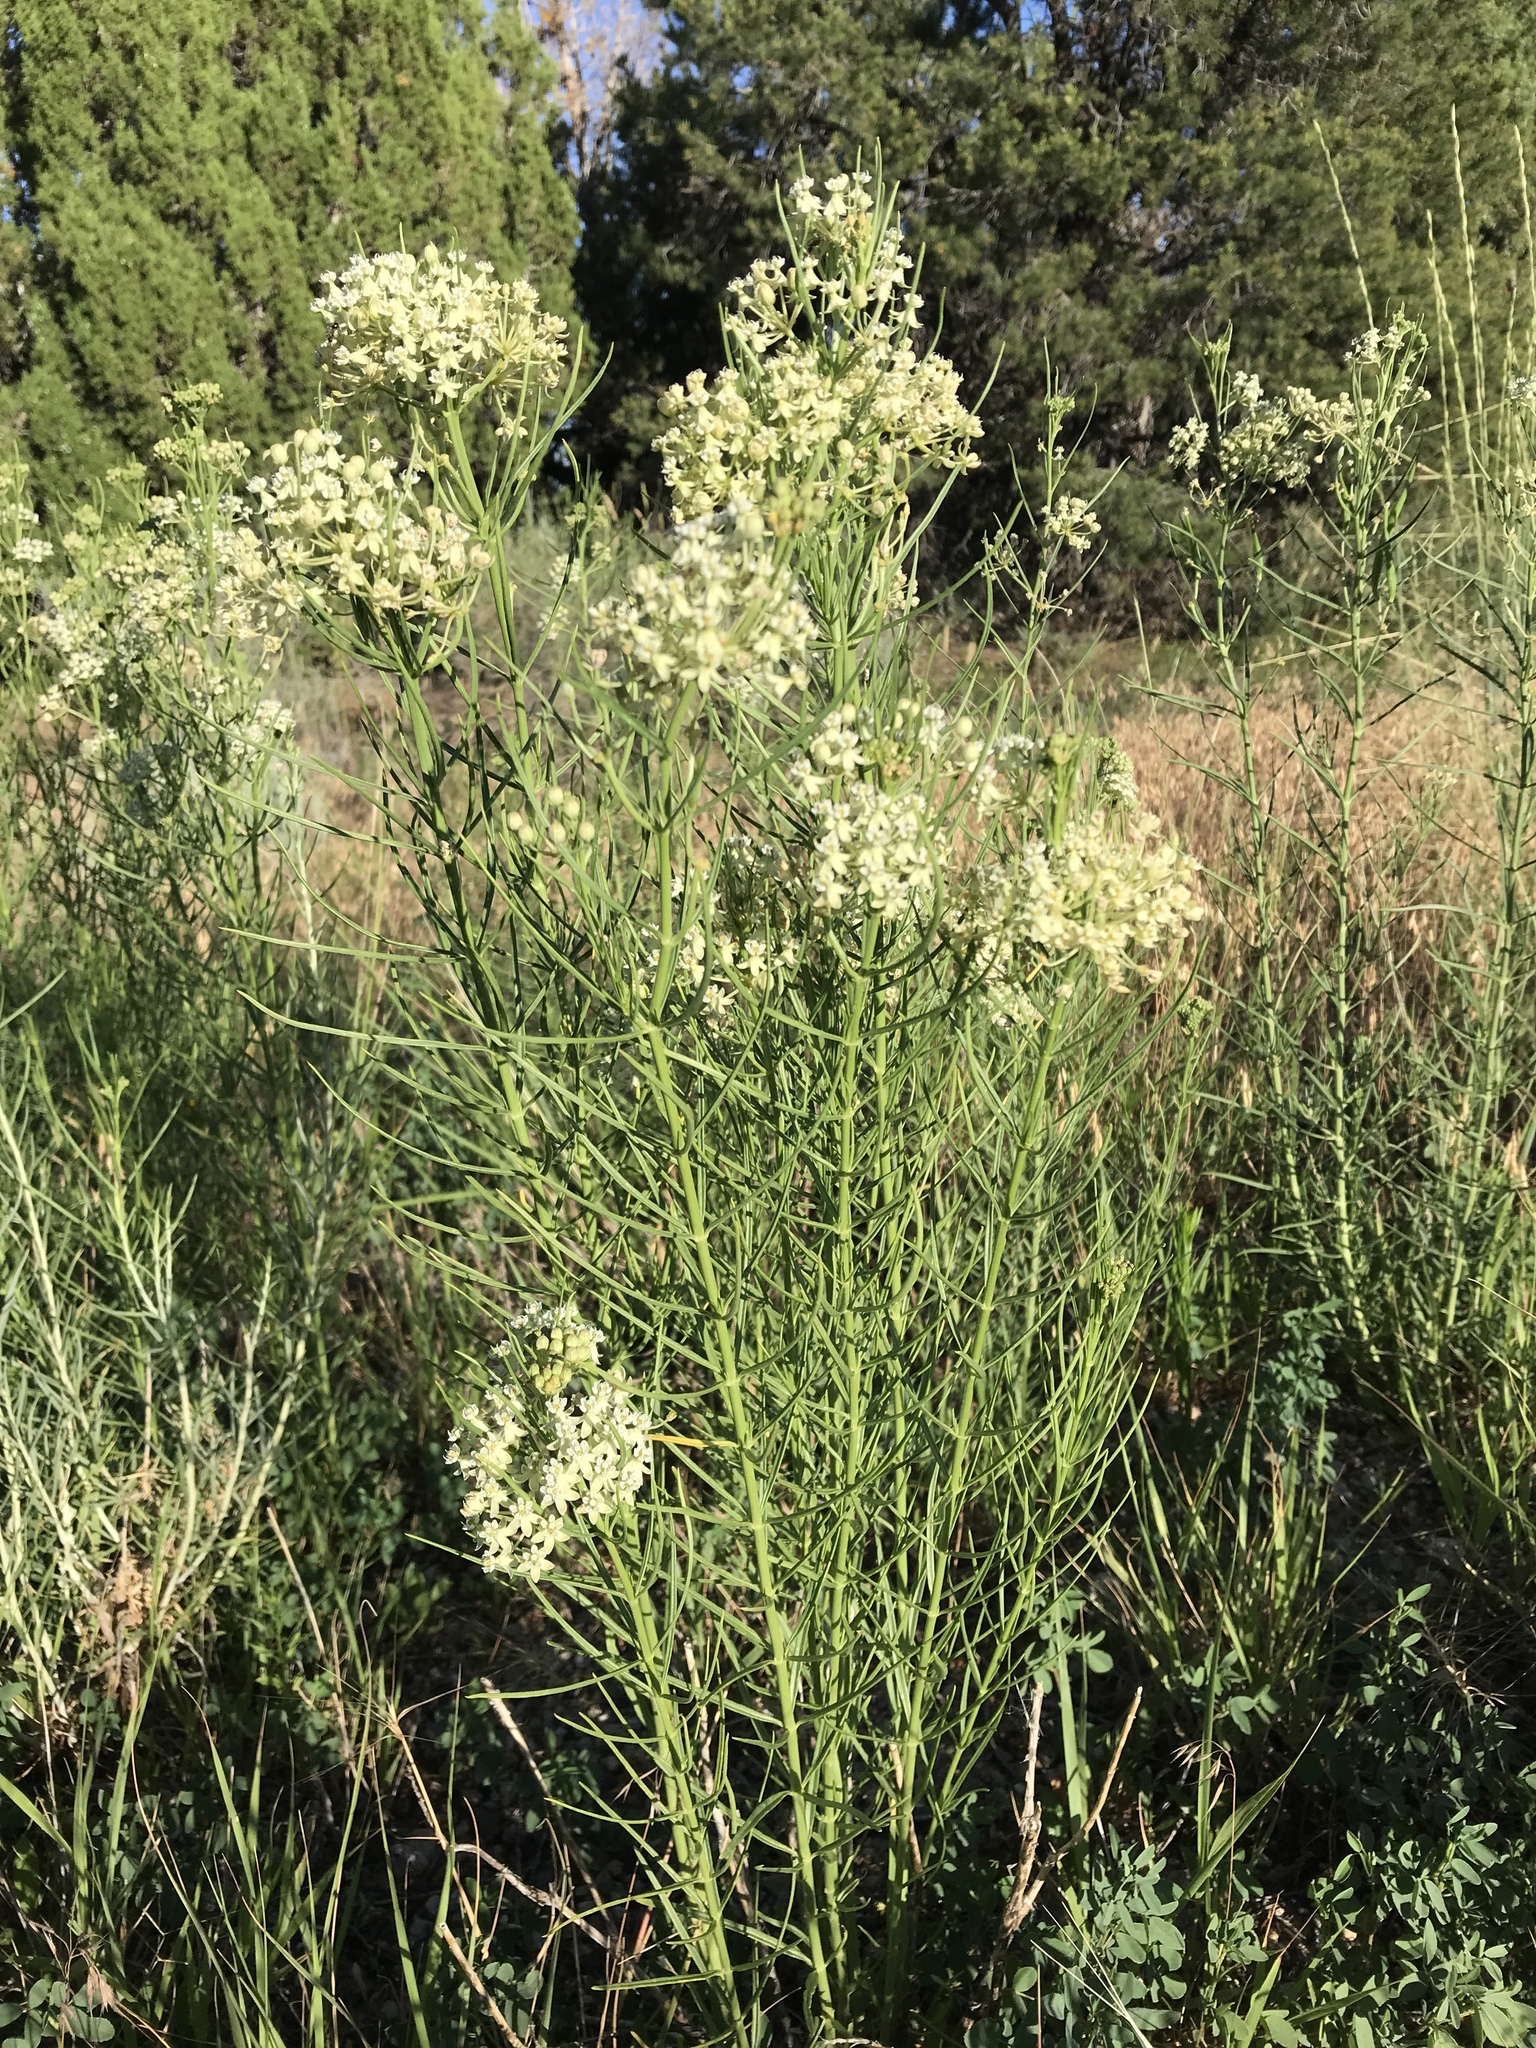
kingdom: Plantae
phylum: Tracheophyta
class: Magnoliopsida
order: Gentianales
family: Apocynaceae
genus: Asclepias
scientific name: Asclepias subverticillata
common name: Horsetail milkweed
